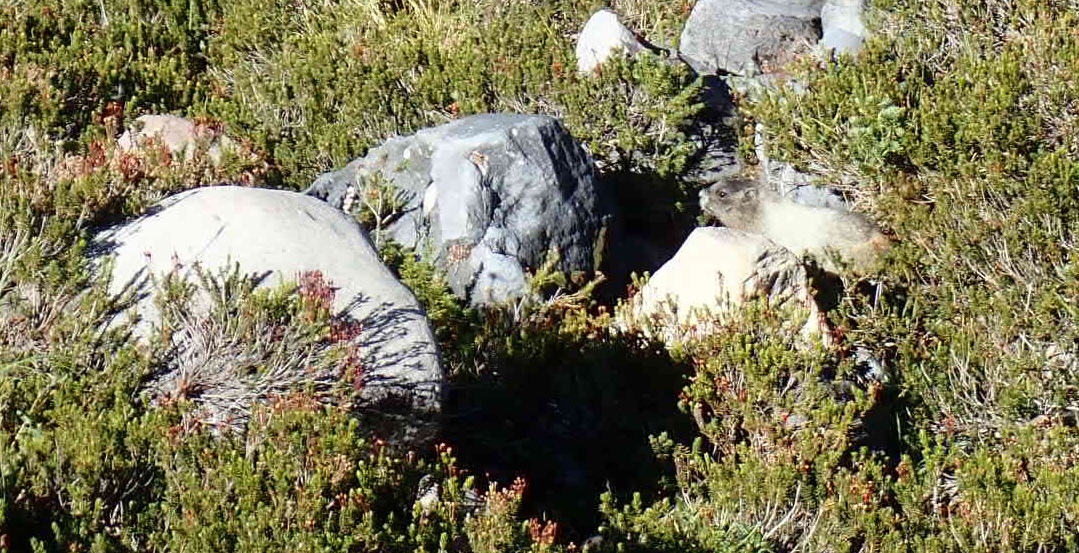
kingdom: Animalia
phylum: Chordata
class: Mammalia
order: Rodentia
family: Sciuridae
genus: Marmota
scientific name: Marmota caligata
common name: Hoary marmot
